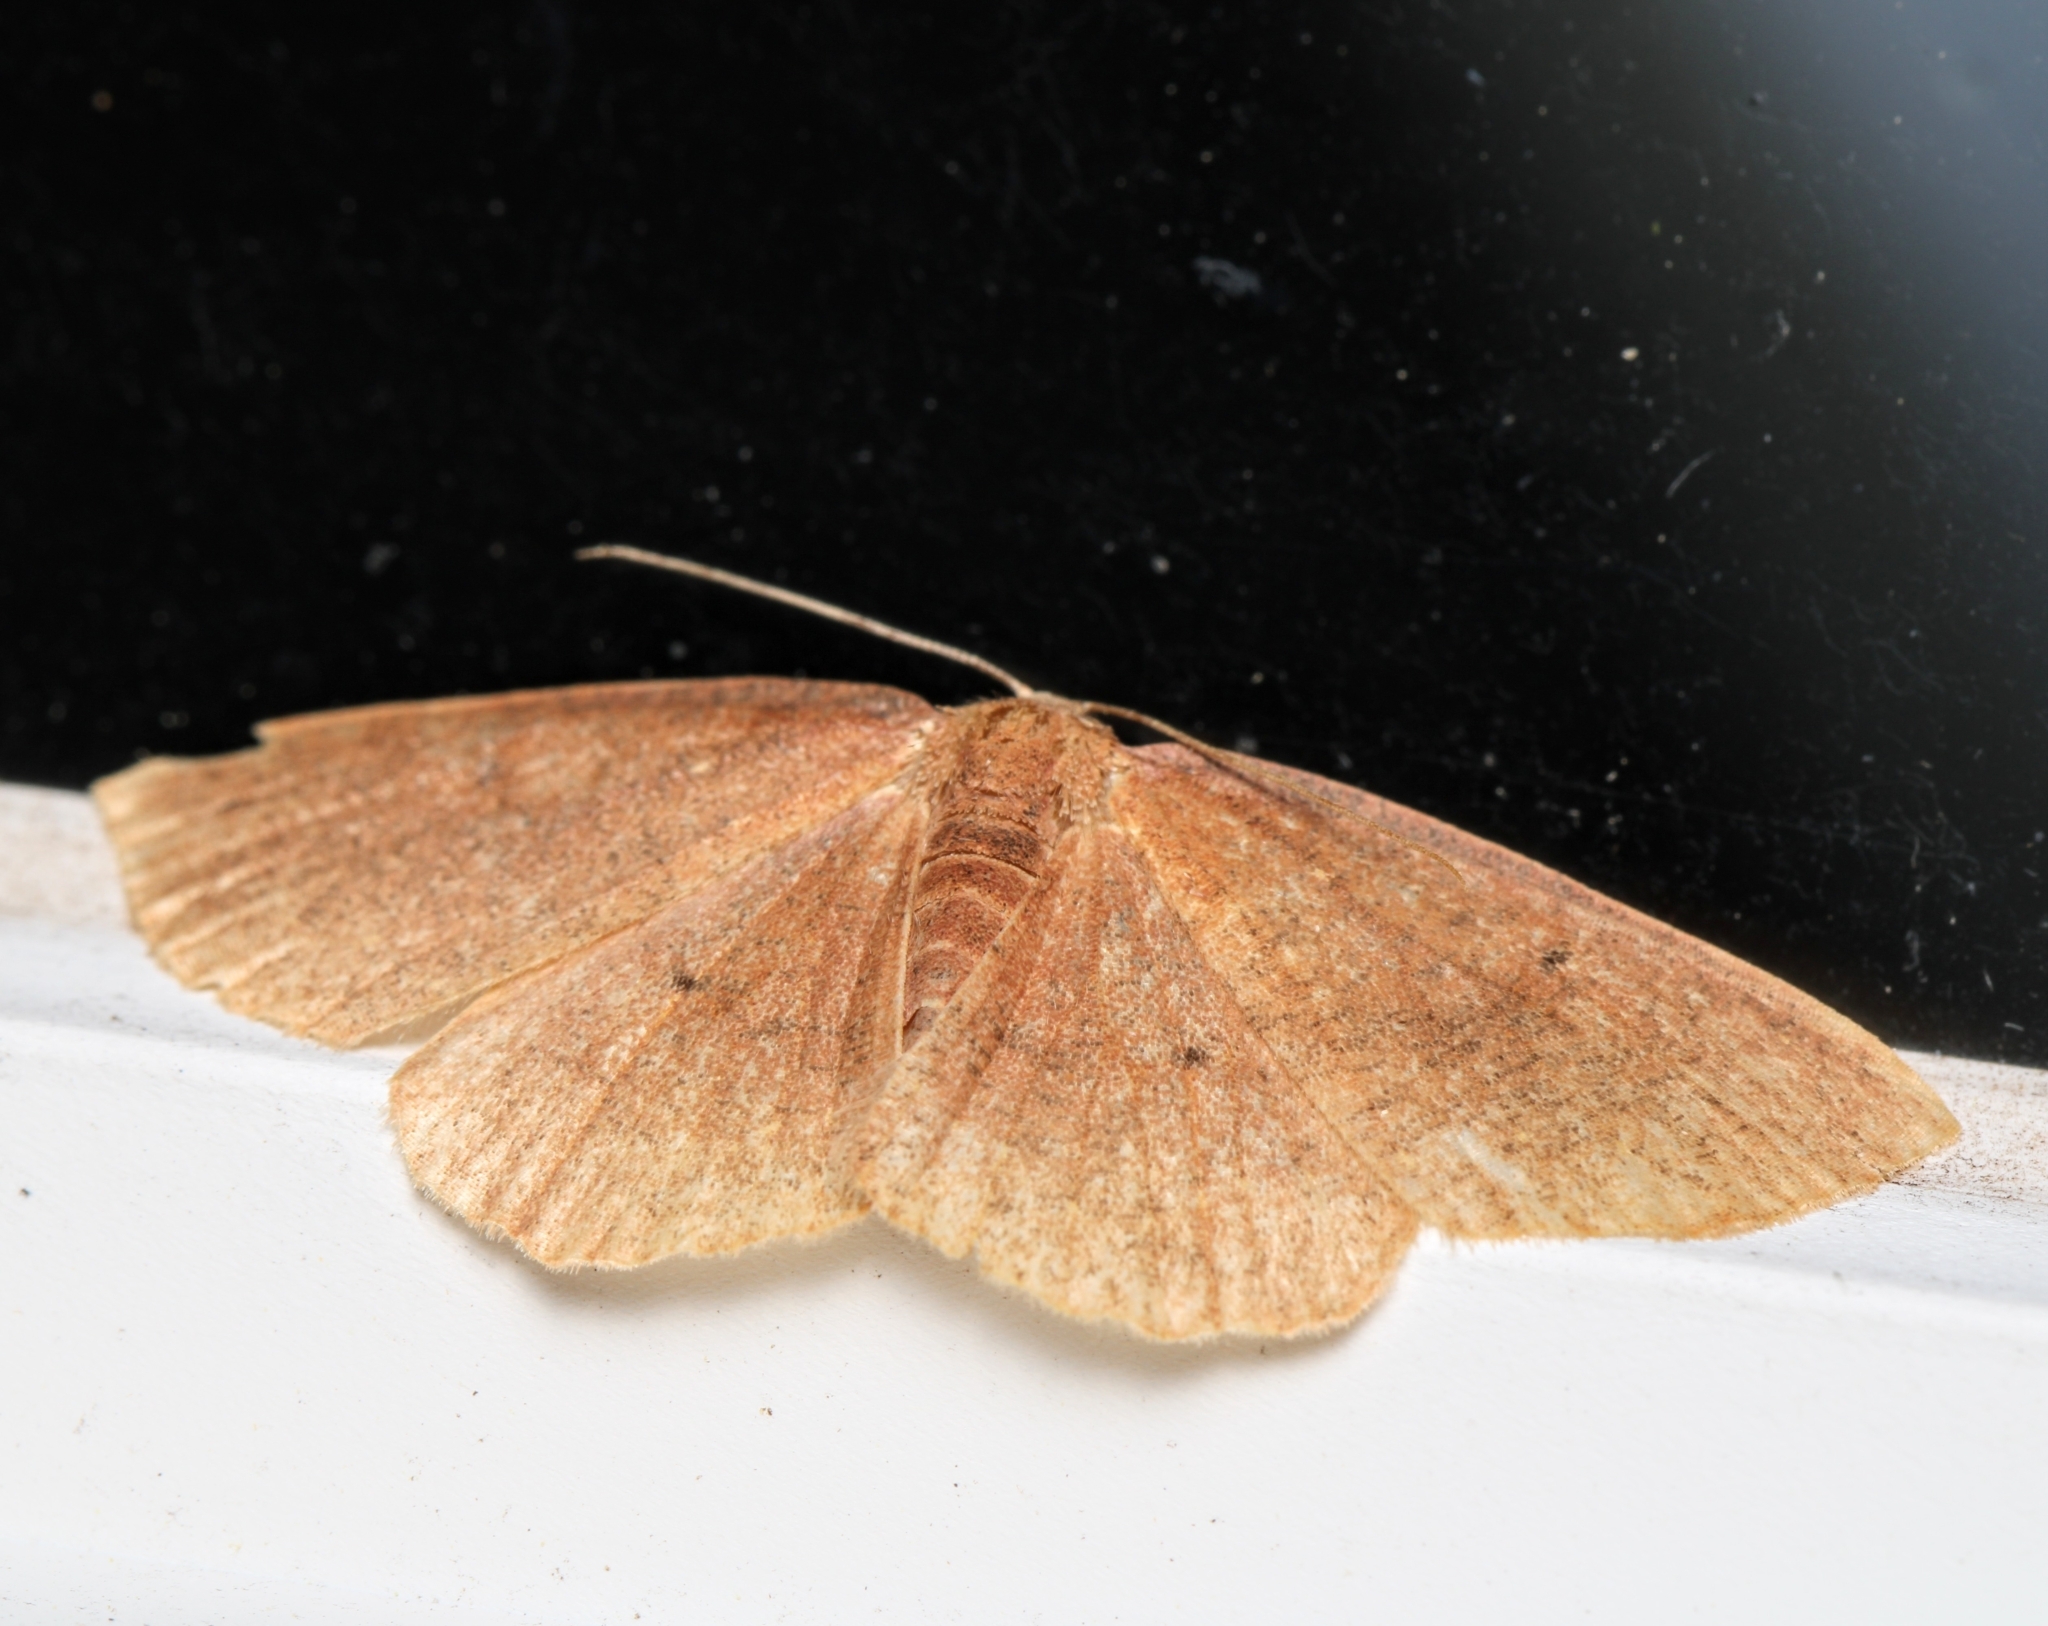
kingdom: Animalia
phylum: Arthropoda
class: Insecta
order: Lepidoptera
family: Geometridae
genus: Ilexia
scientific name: Ilexia intractata
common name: Black-dotted ruddy moth
